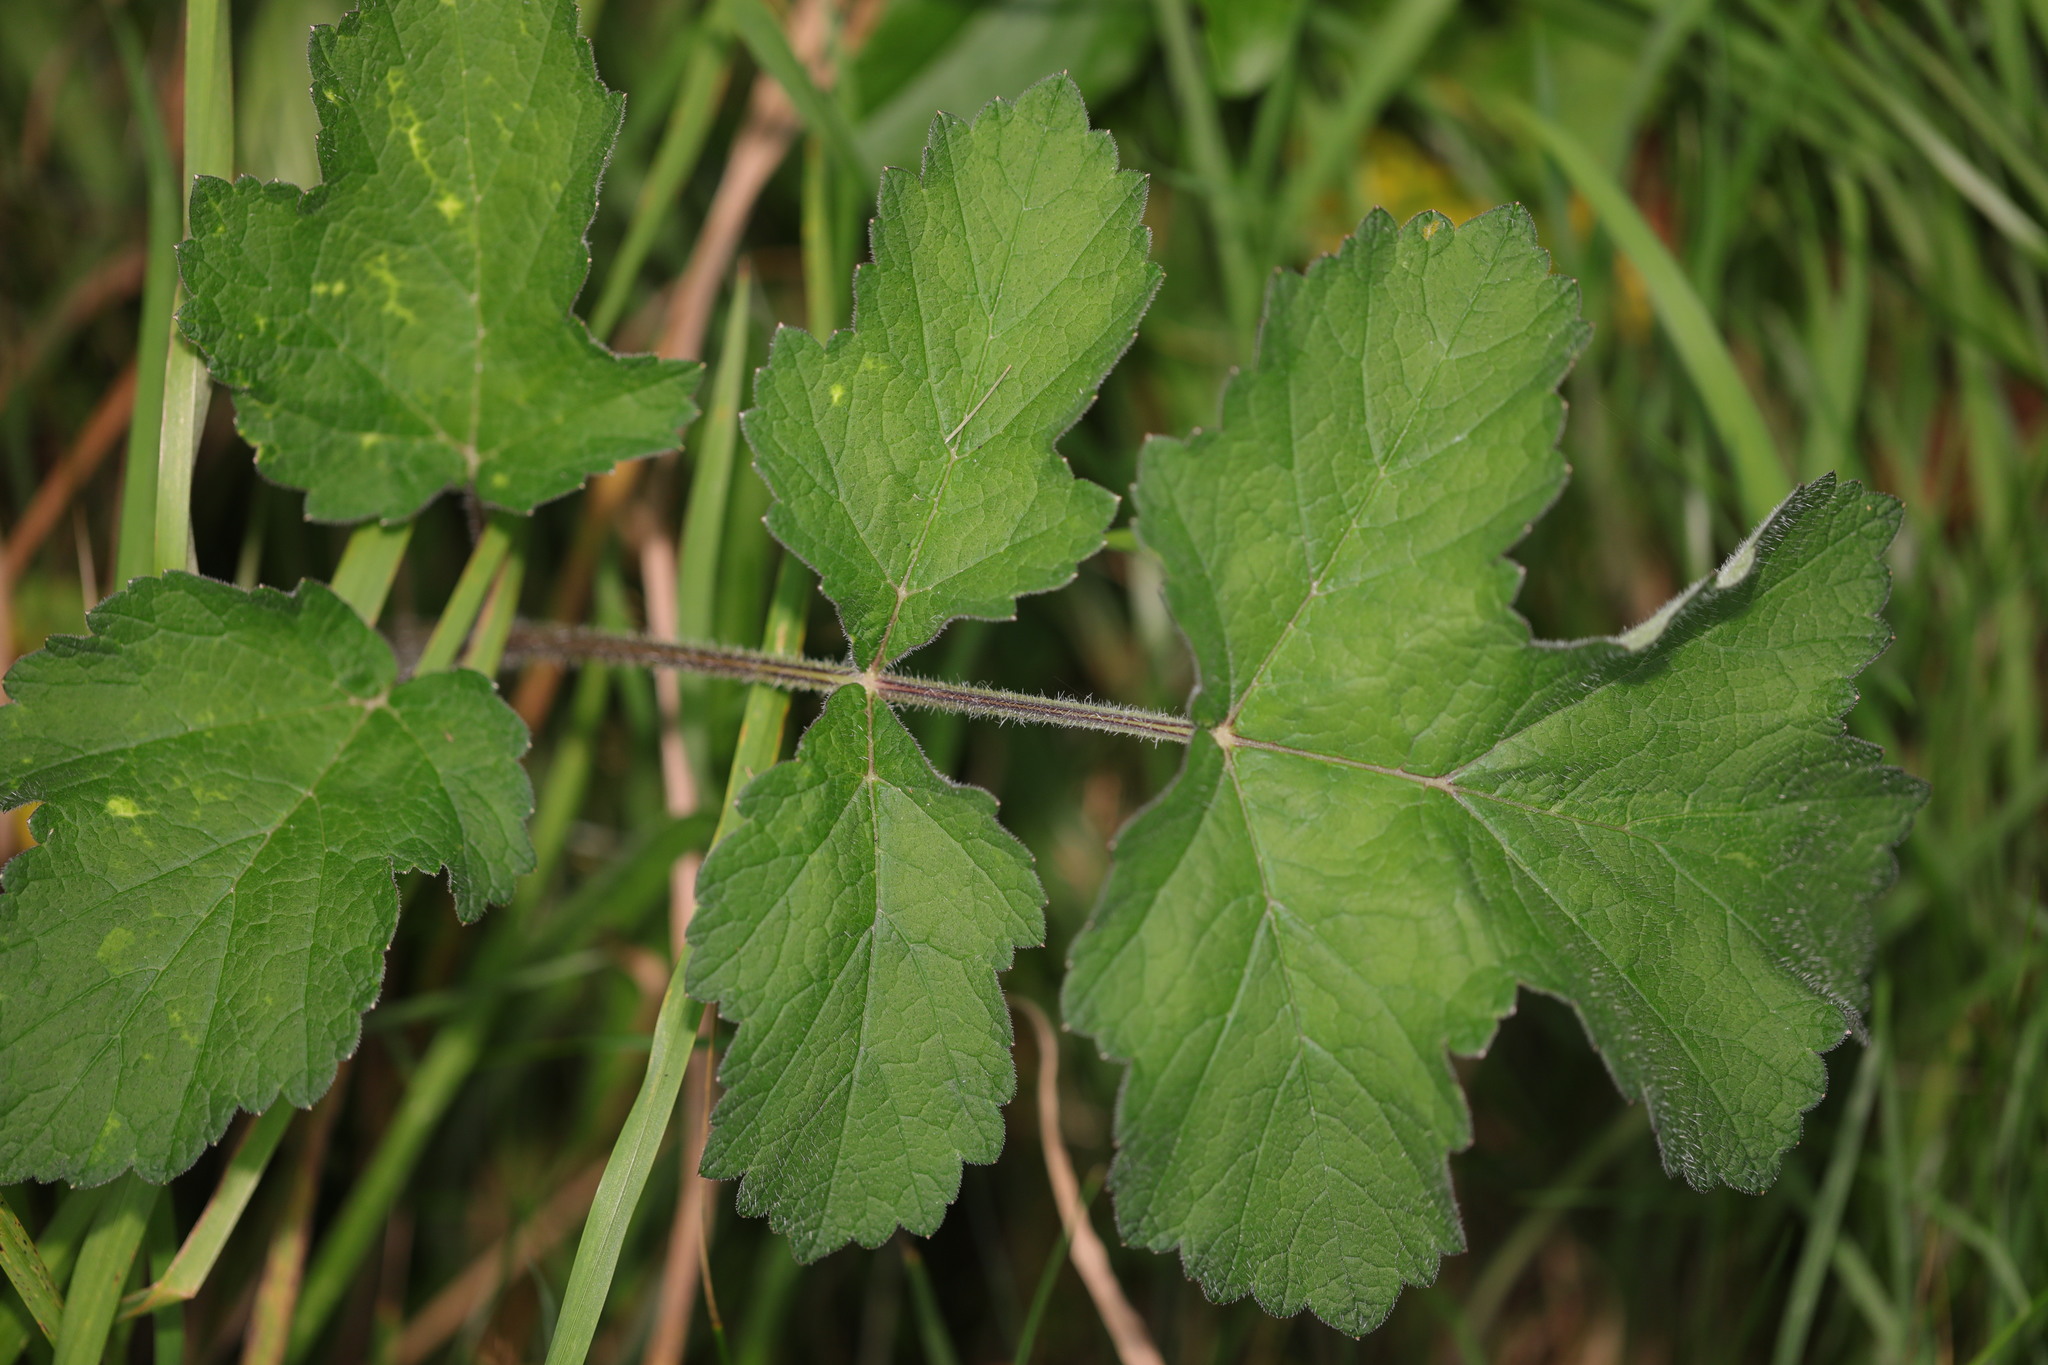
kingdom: Plantae
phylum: Tracheophyta
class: Magnoliopsida
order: Apiales
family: Apiaceae
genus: Heracleum
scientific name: Heracleum sphondylium
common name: Hogweed
